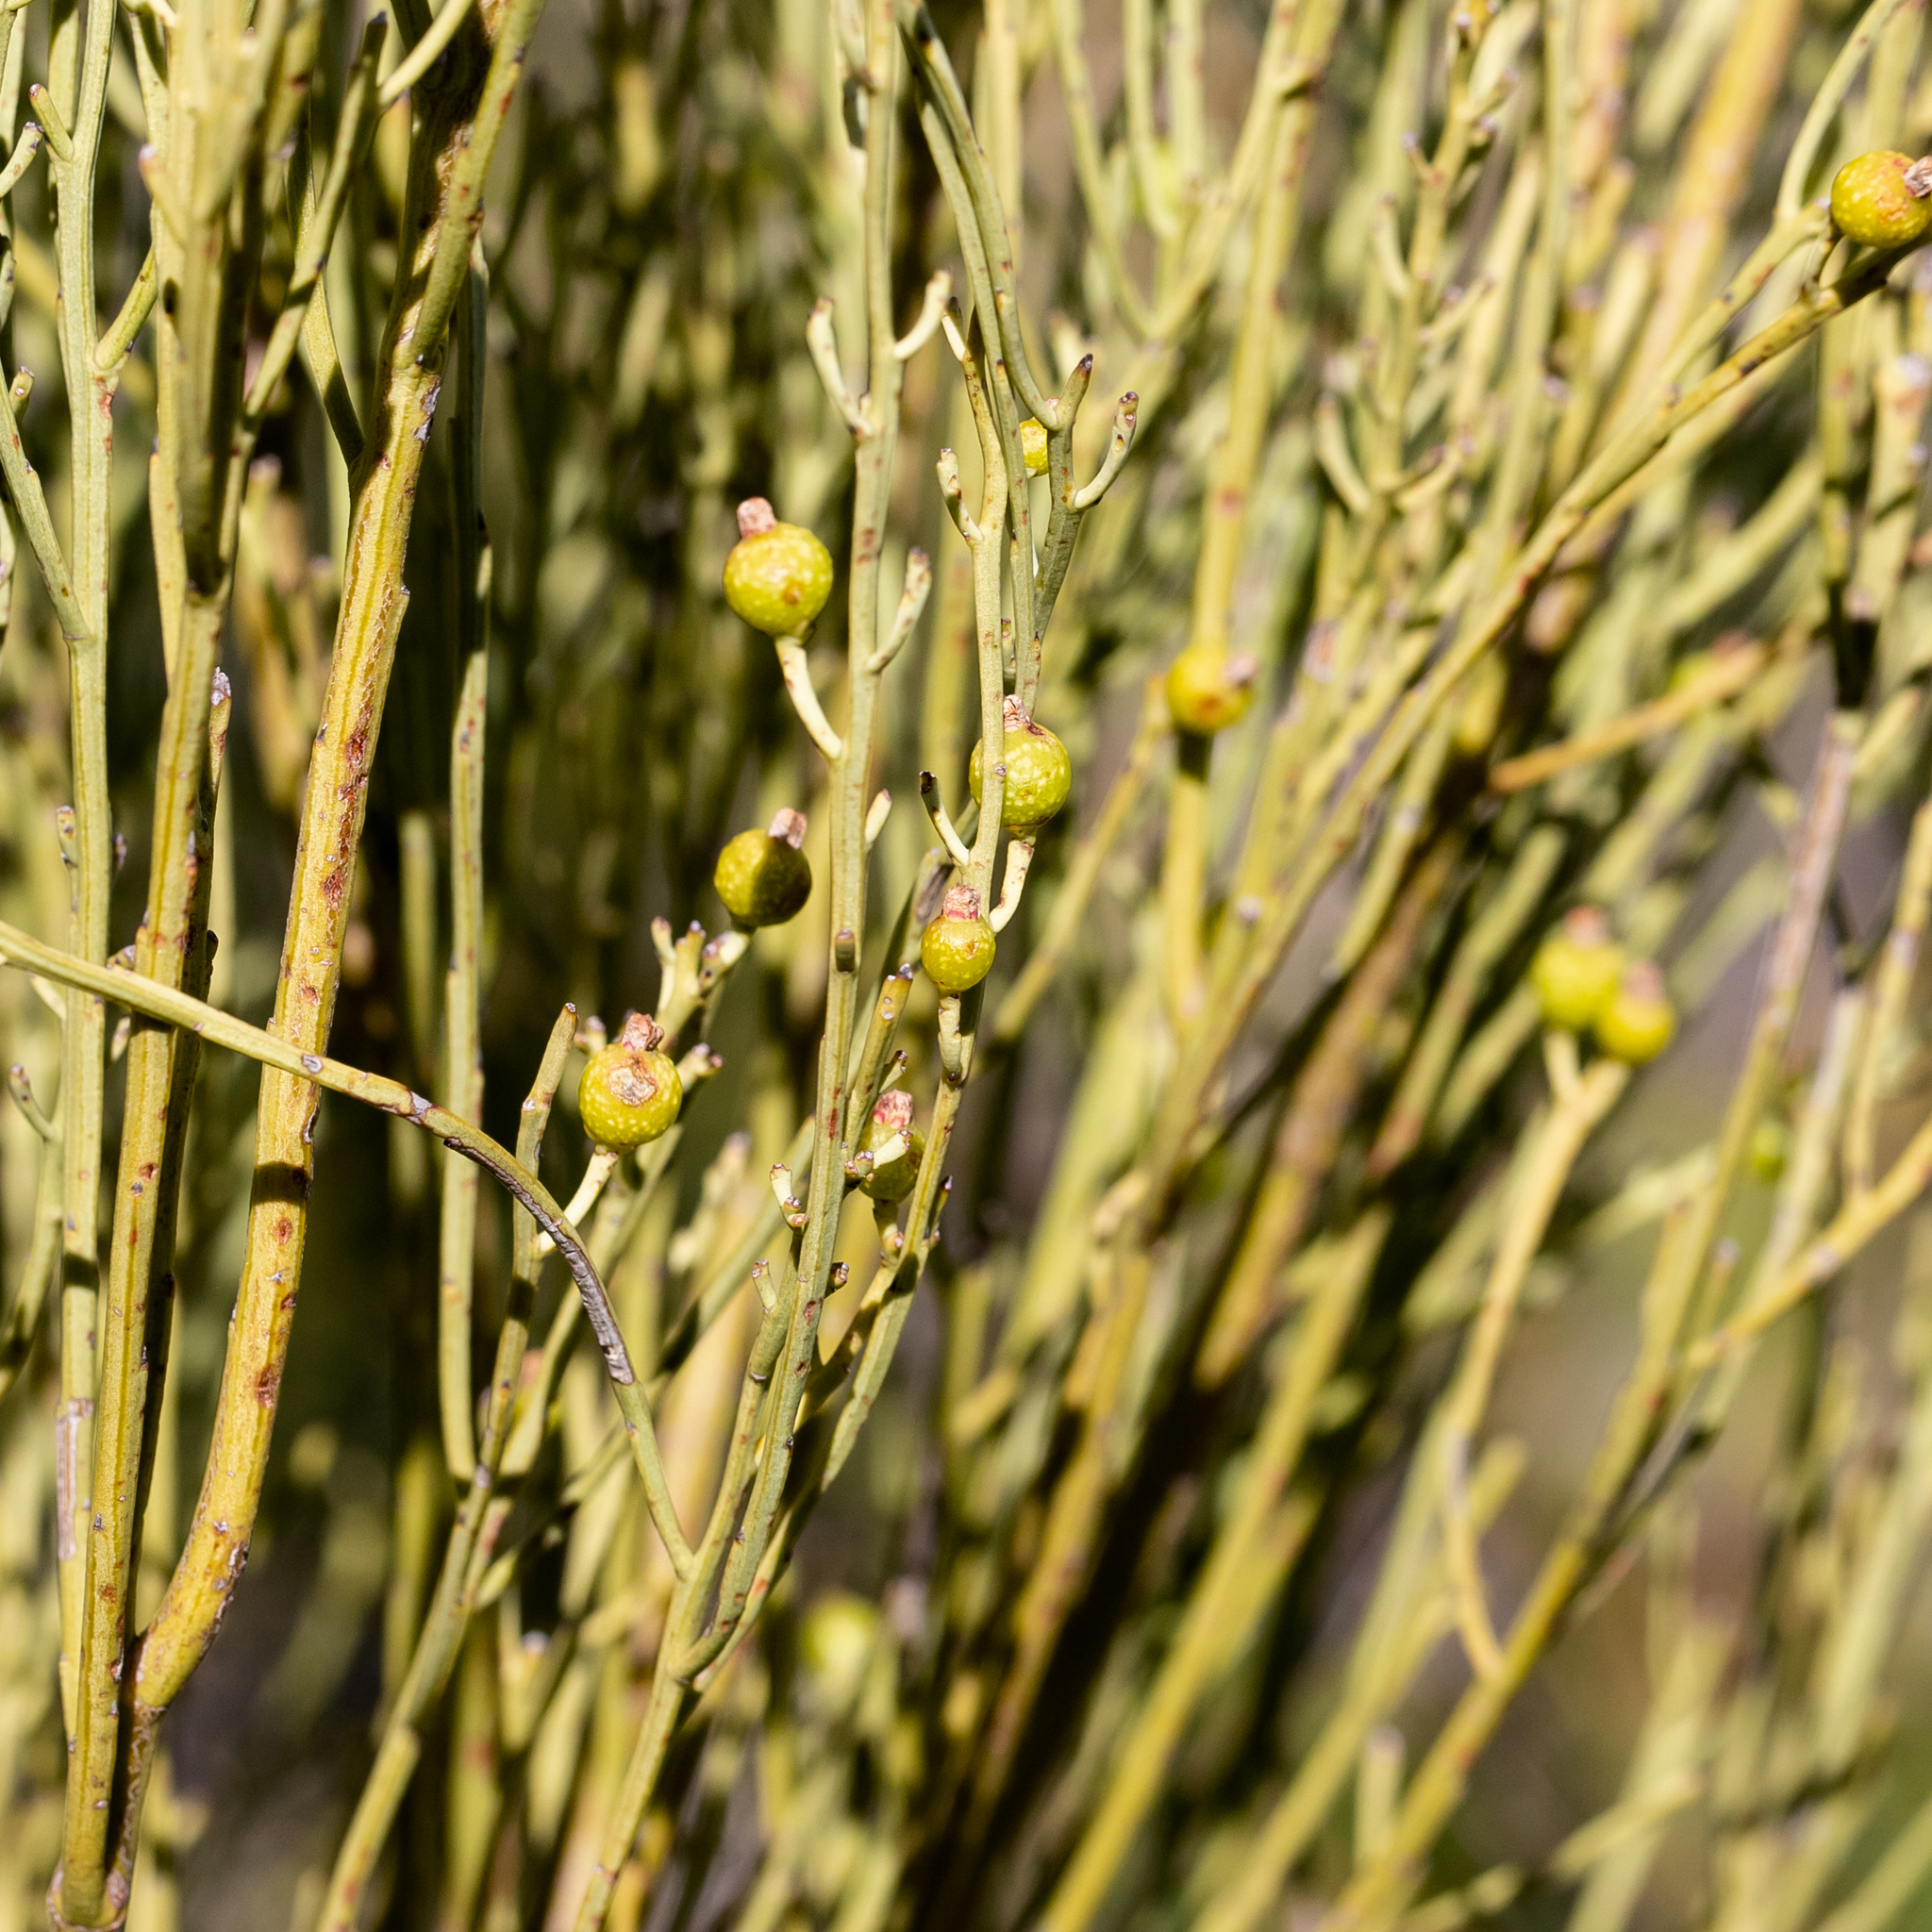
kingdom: Plantae
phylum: Tracheophyta
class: Magnoliopsida
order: Santalales
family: Amphorogynaceae
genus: Choretrum
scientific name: Choretrum glomeratum
